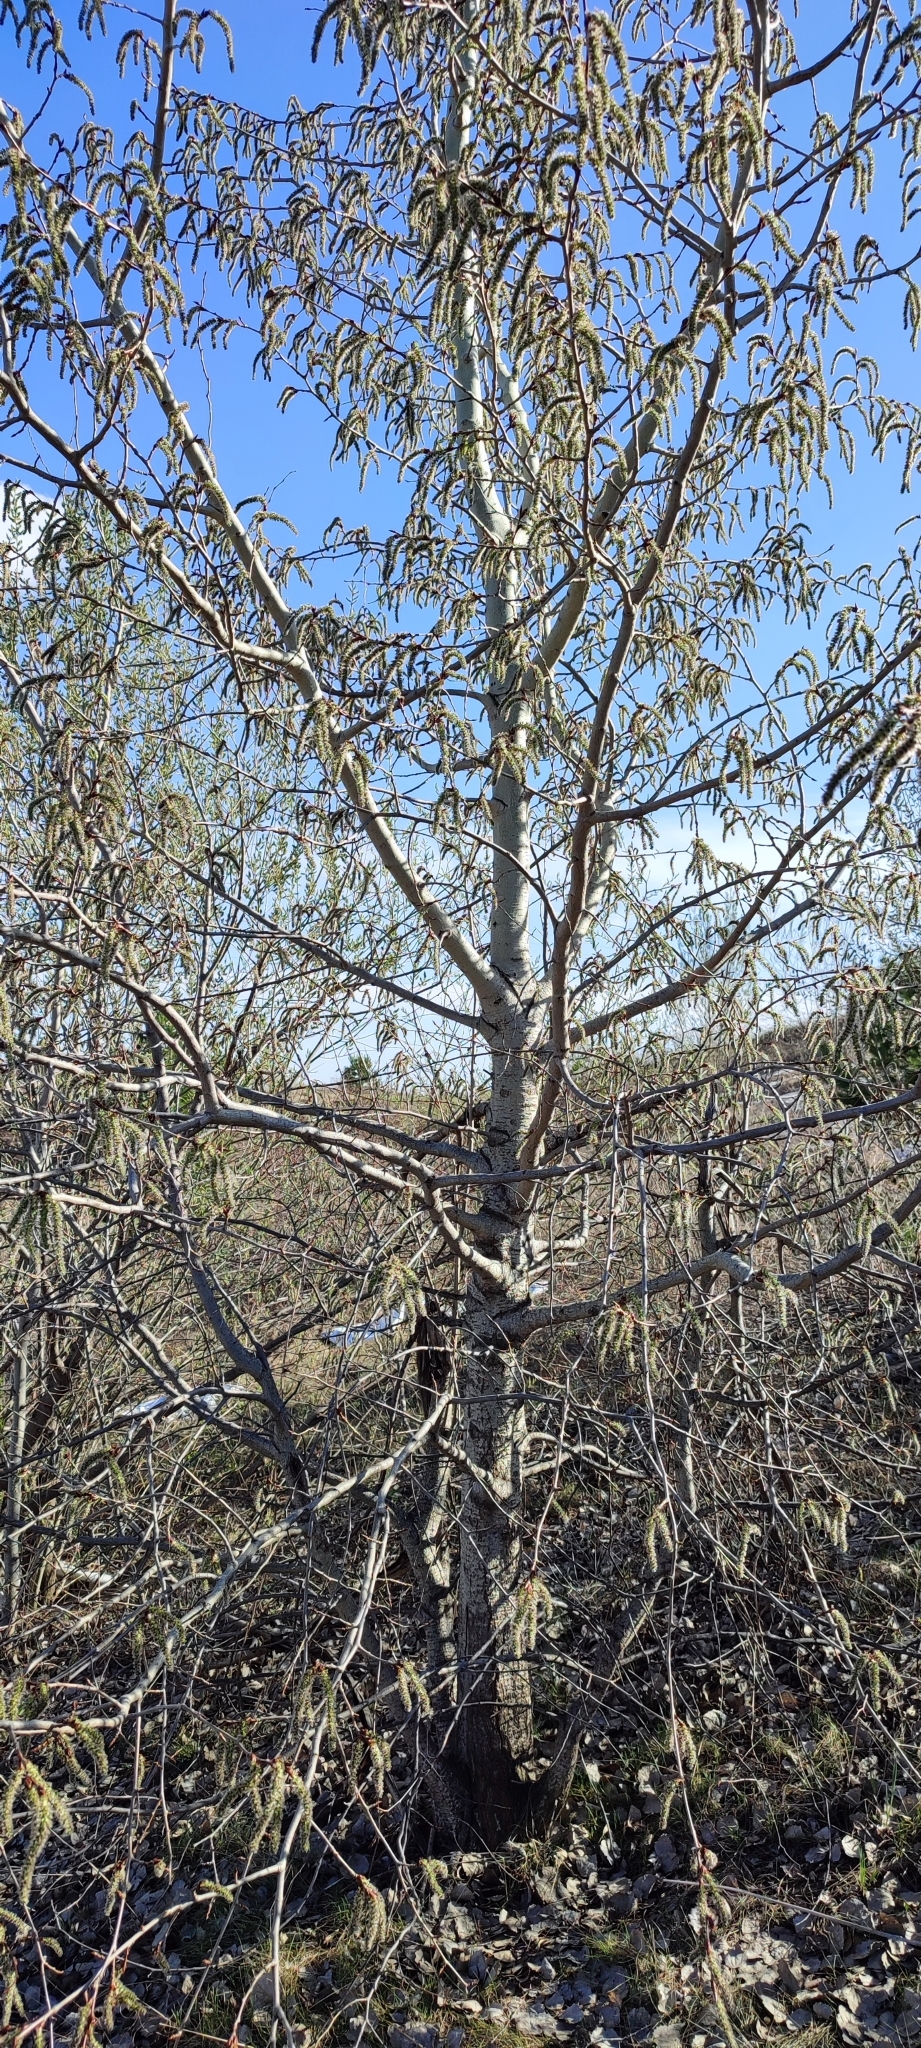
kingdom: Plantae
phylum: Tracheophyta
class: Magnoliopsida
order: Malpighiales
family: Salicaceae
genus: Populus
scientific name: Populus tremula
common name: European aspen
